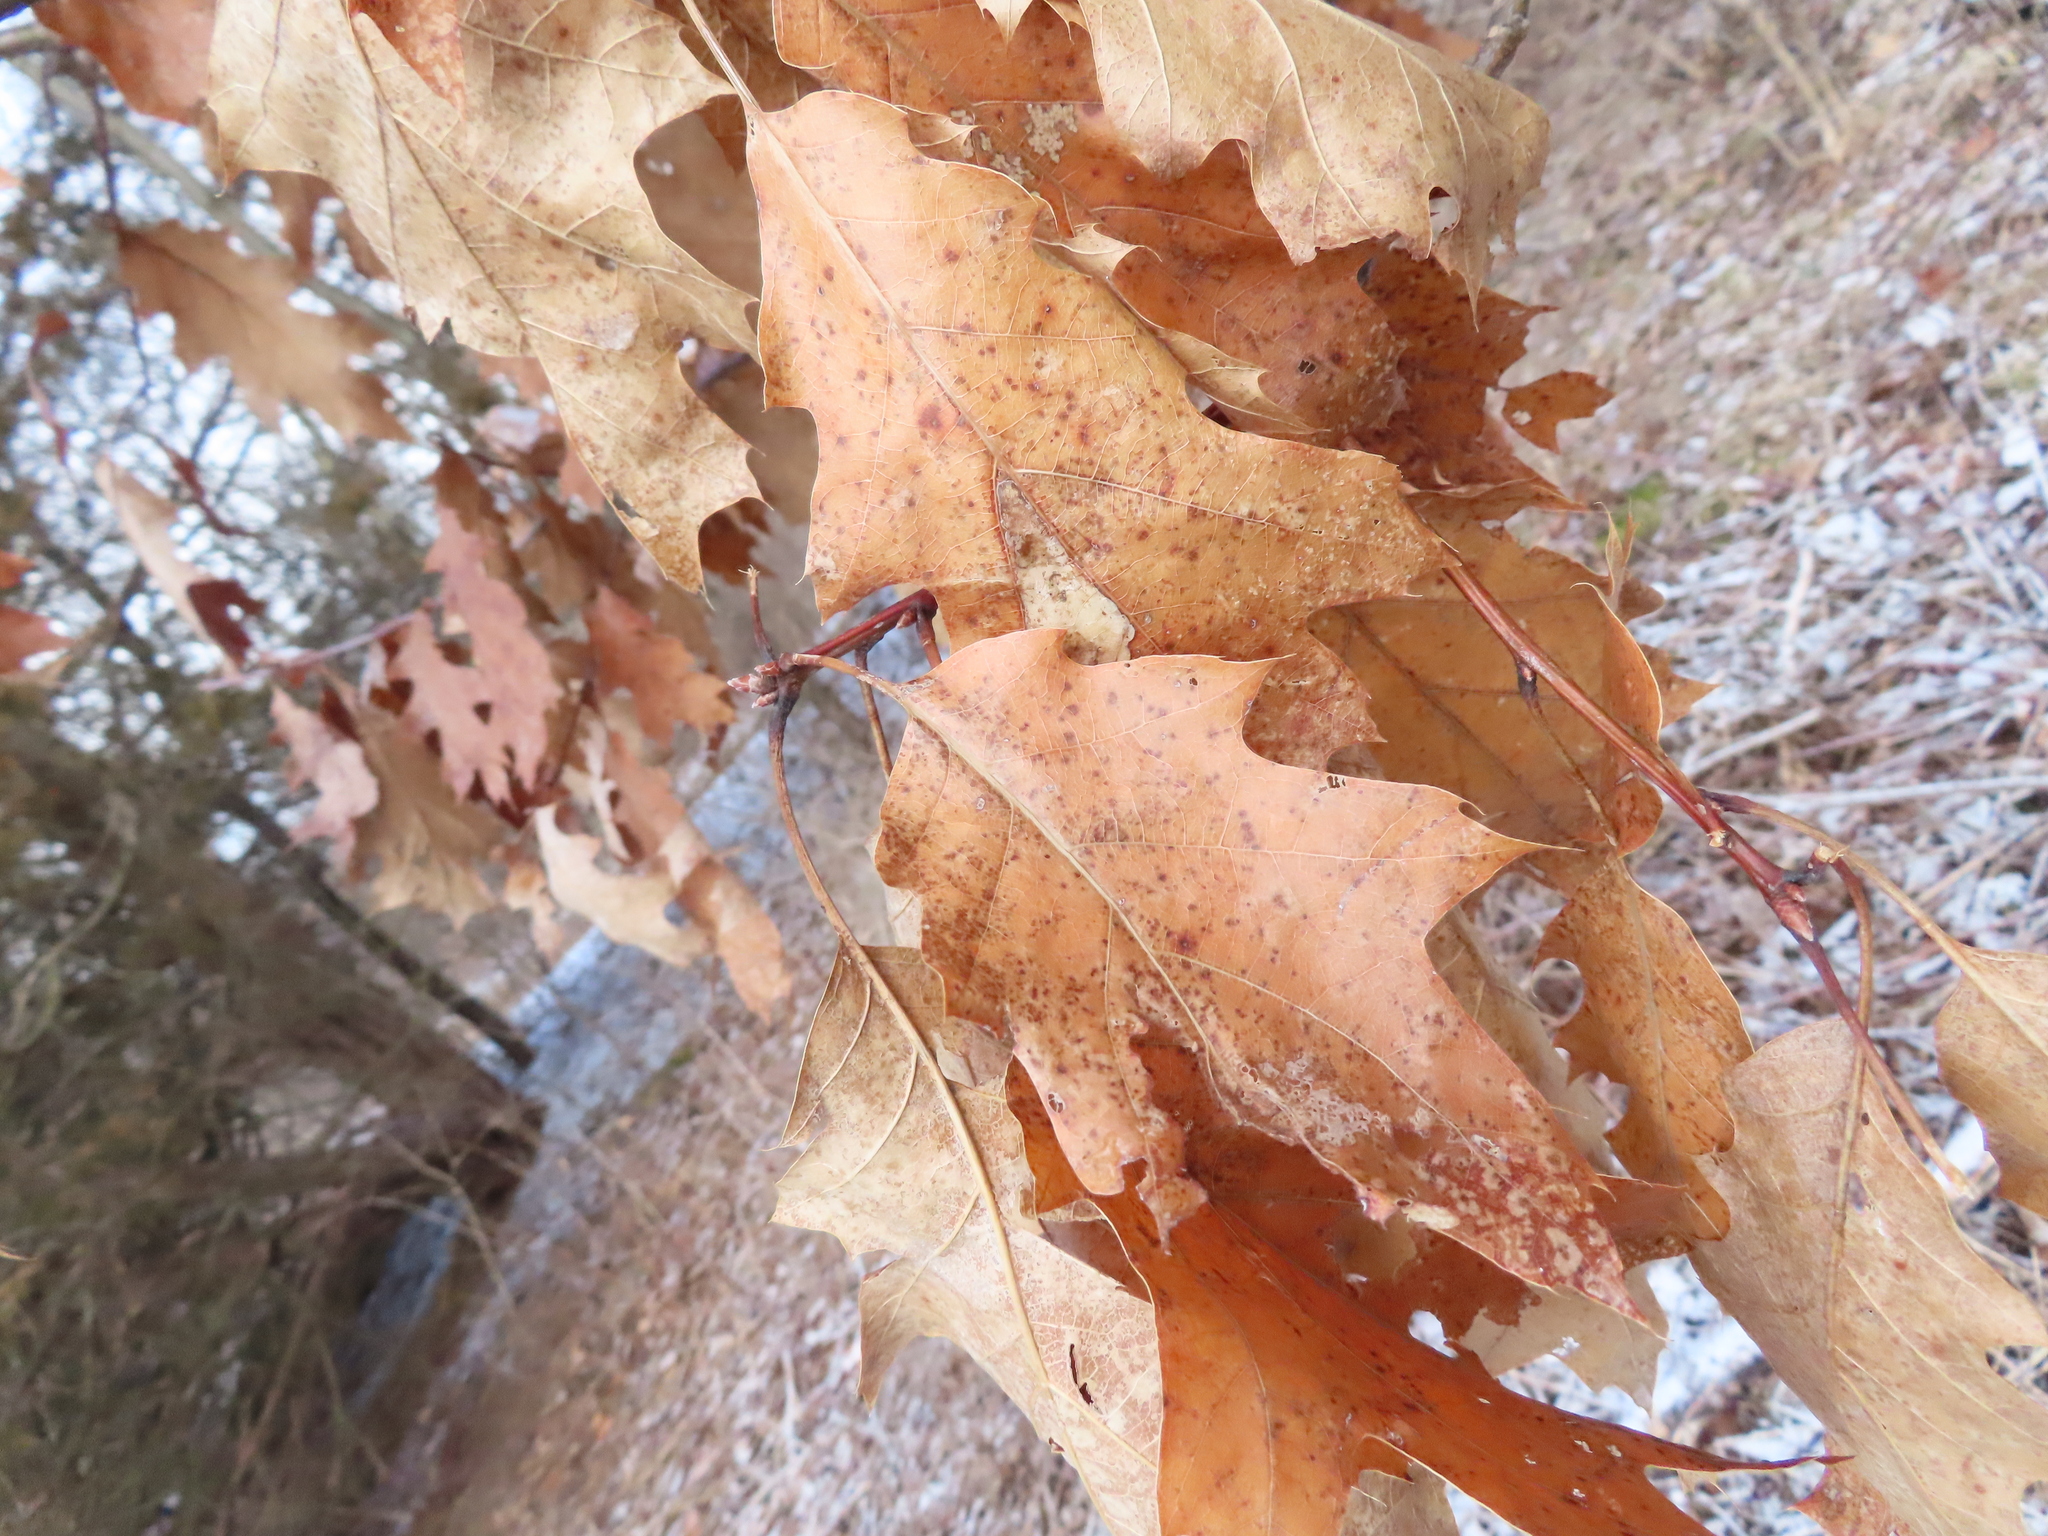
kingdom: Plantae
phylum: Tracheophyta
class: Magnoliopsida
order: Fagales
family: Fagaceae
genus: Quercus
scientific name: Quercus rubra
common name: Red oak
